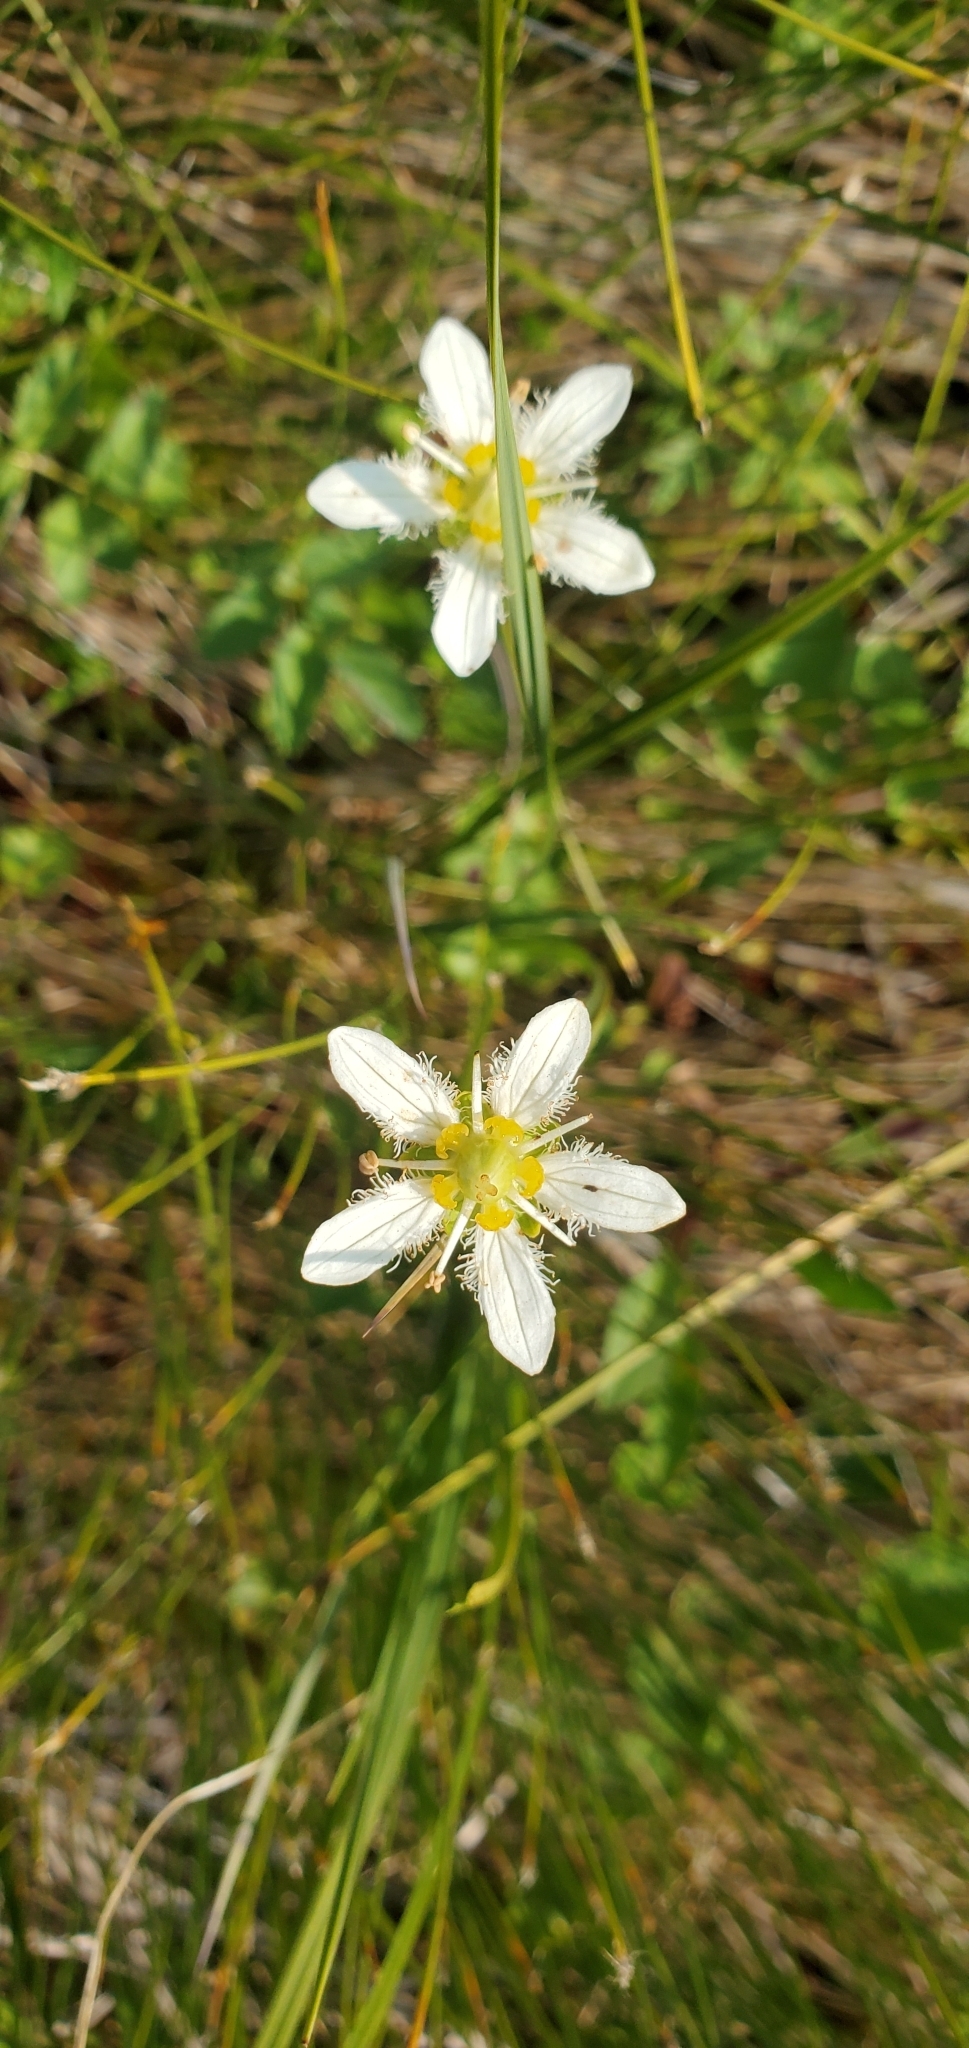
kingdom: Plantae
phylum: Tracheophyta
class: Magnoliopsida
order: Celastrales
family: Parnassiaceae
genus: Parnassia
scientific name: Parnassia fimbriata
